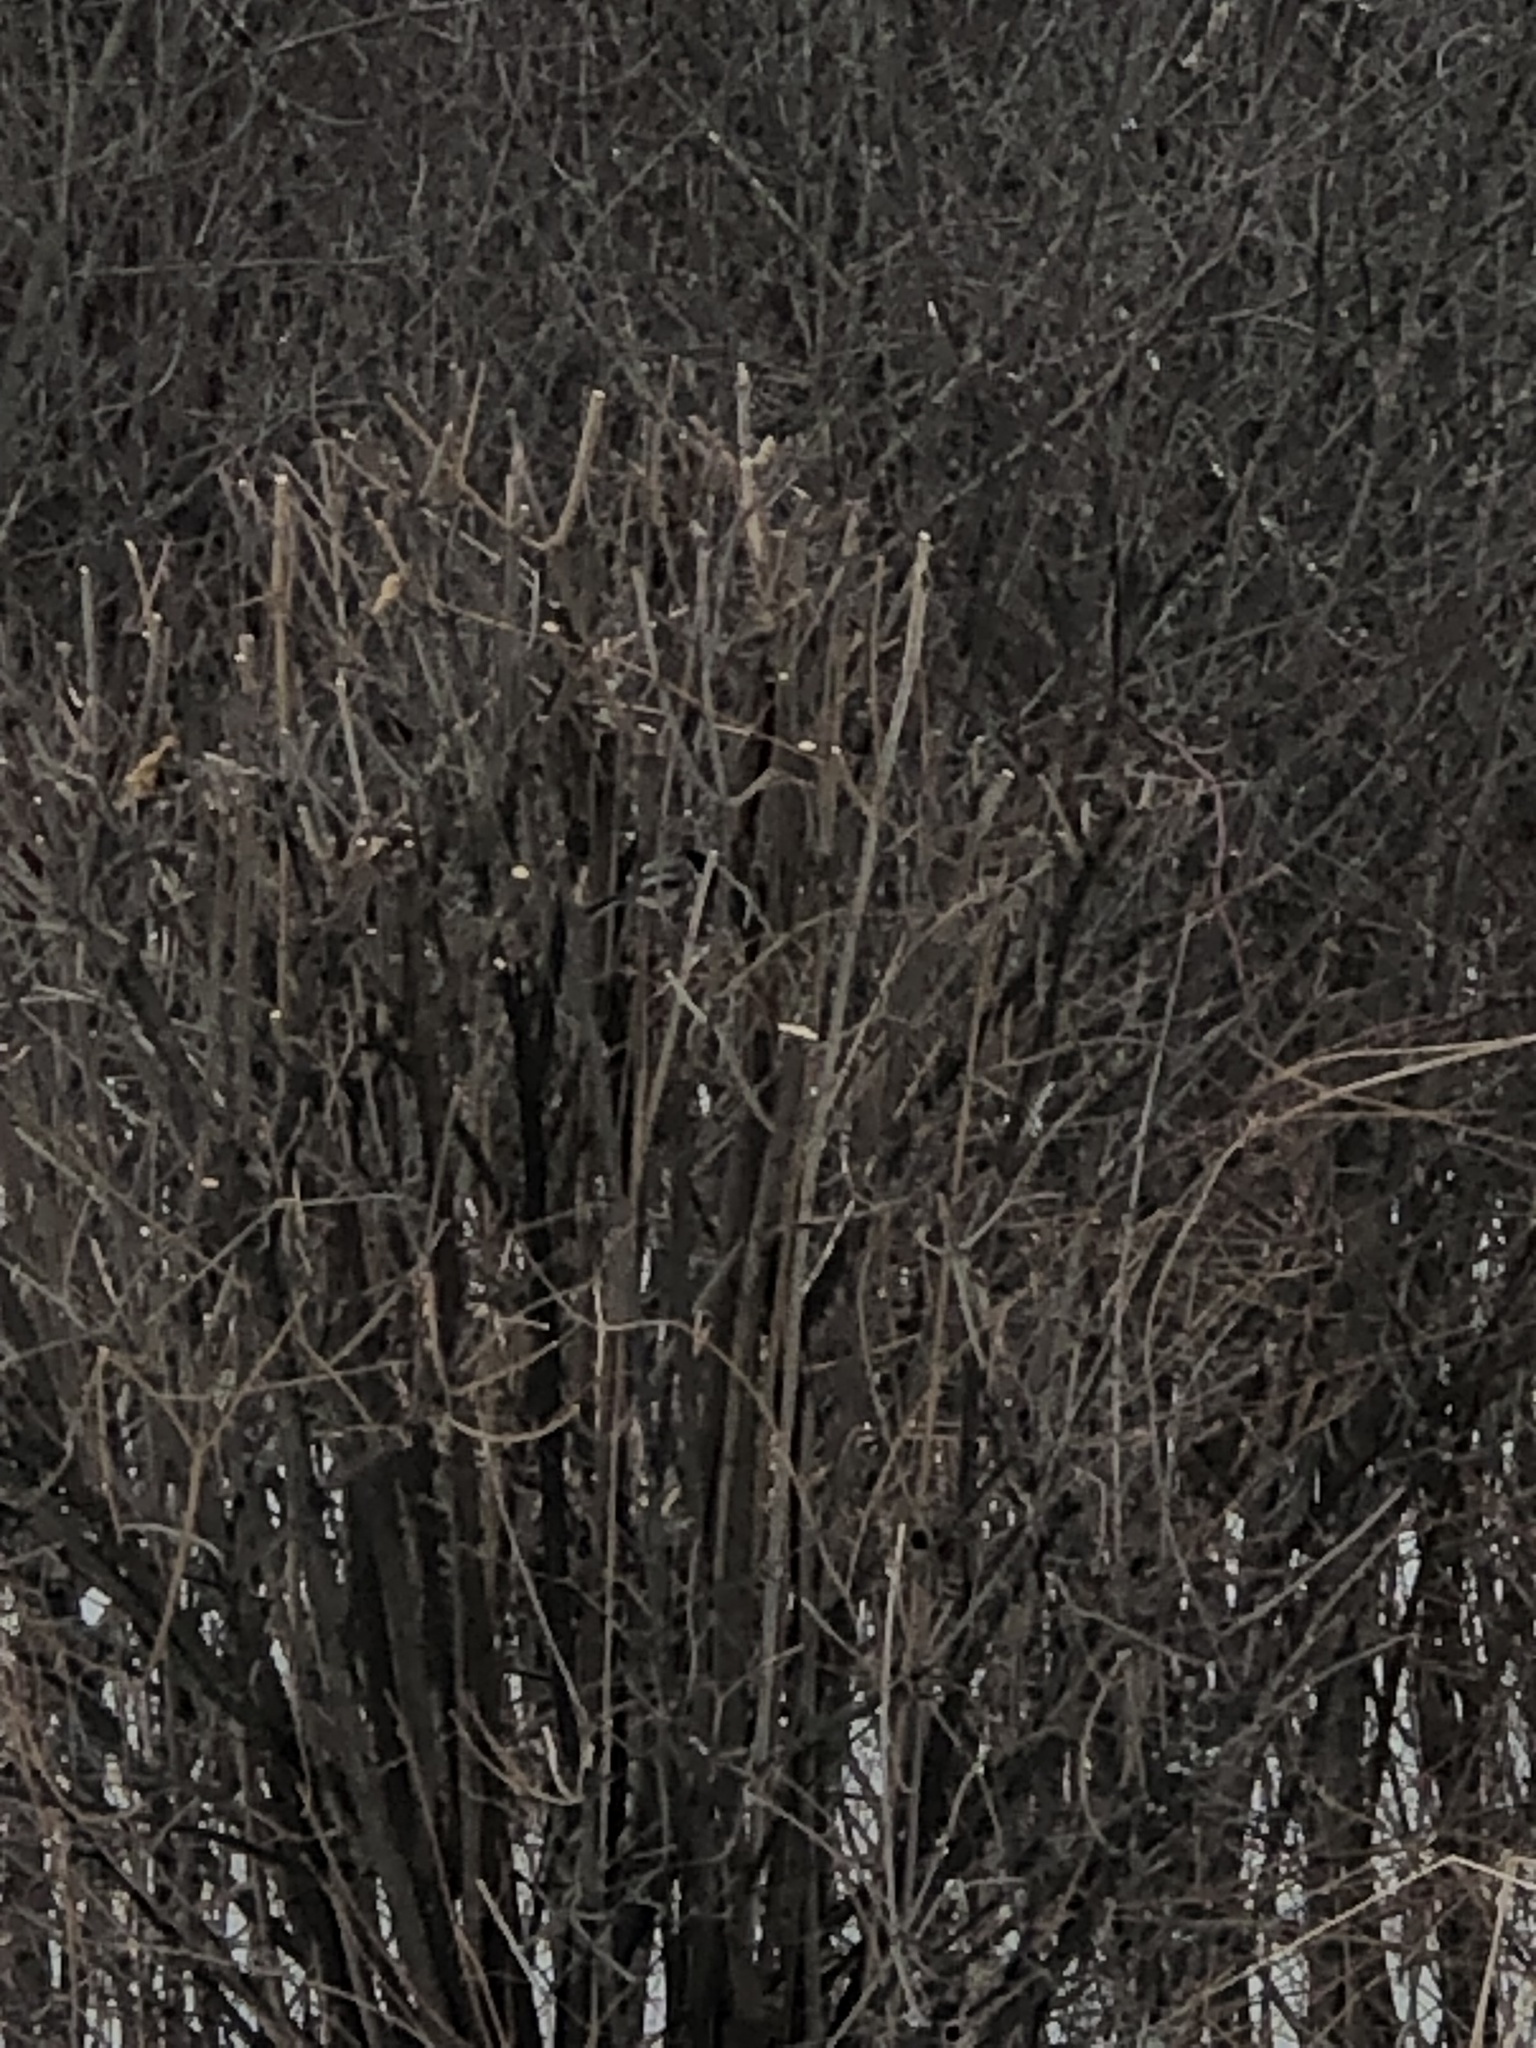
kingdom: Animalia
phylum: Chordata
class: Aves
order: Passeriformes
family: Paridae
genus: Poecile
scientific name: Poecile atricapillus
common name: Black-capped chickadee
